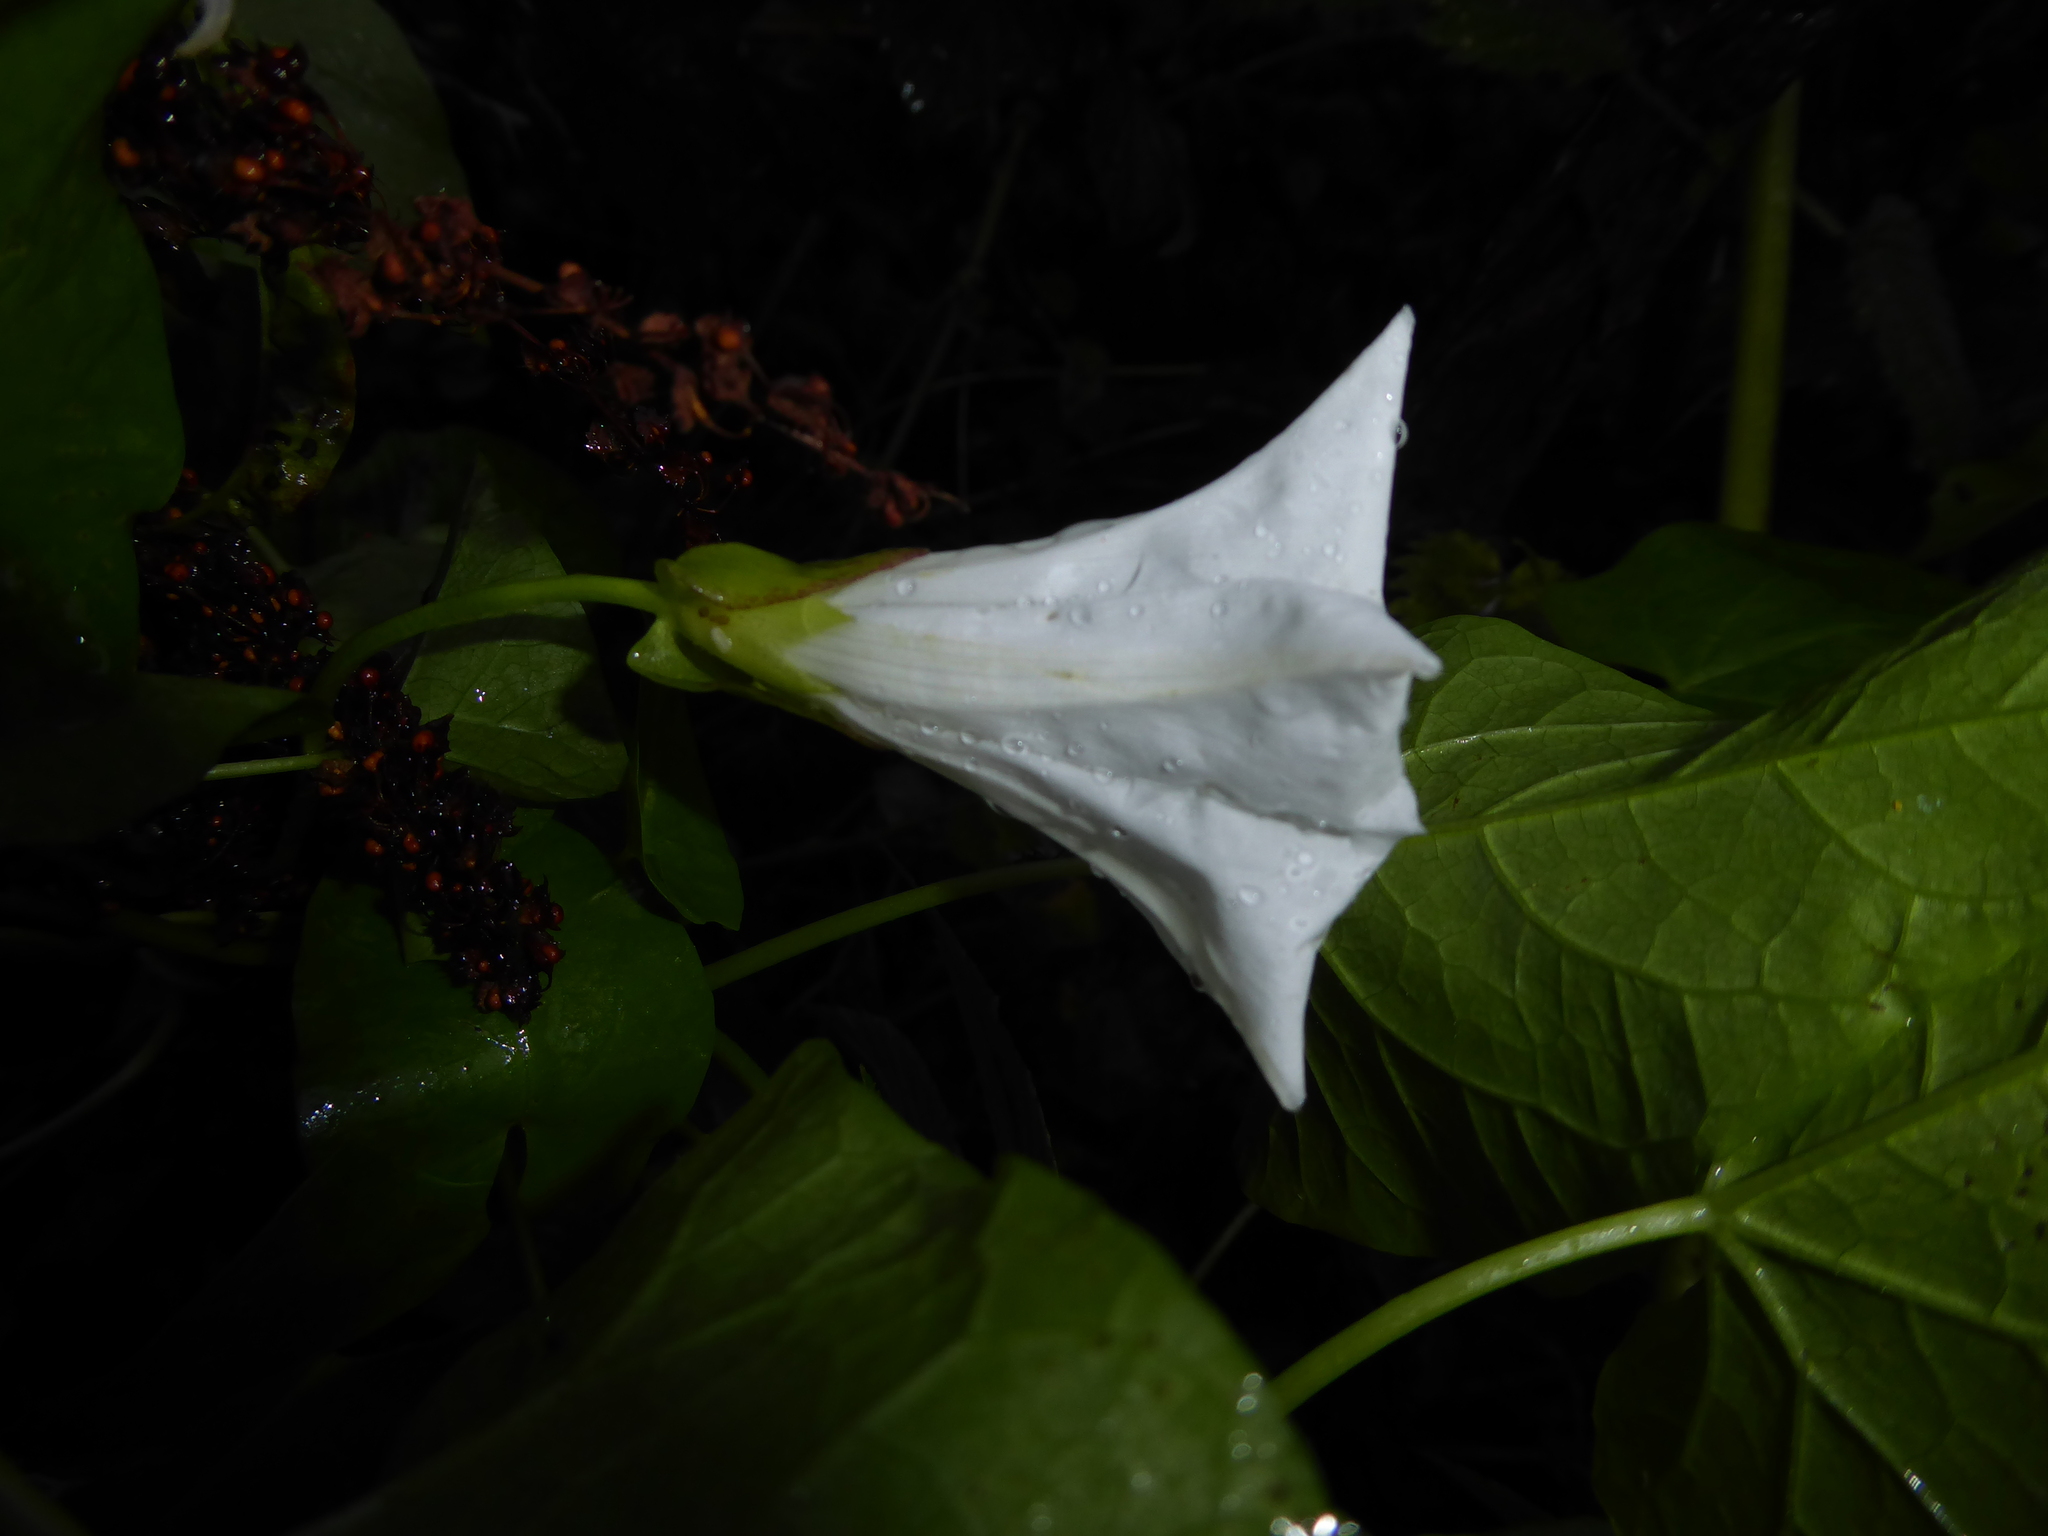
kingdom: Plantae
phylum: Tracheophyta
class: Magnoliopsida
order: Solanales
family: Convolvulaceae
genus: Calystegia
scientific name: Calystegia sepium
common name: Hedge bindweed
